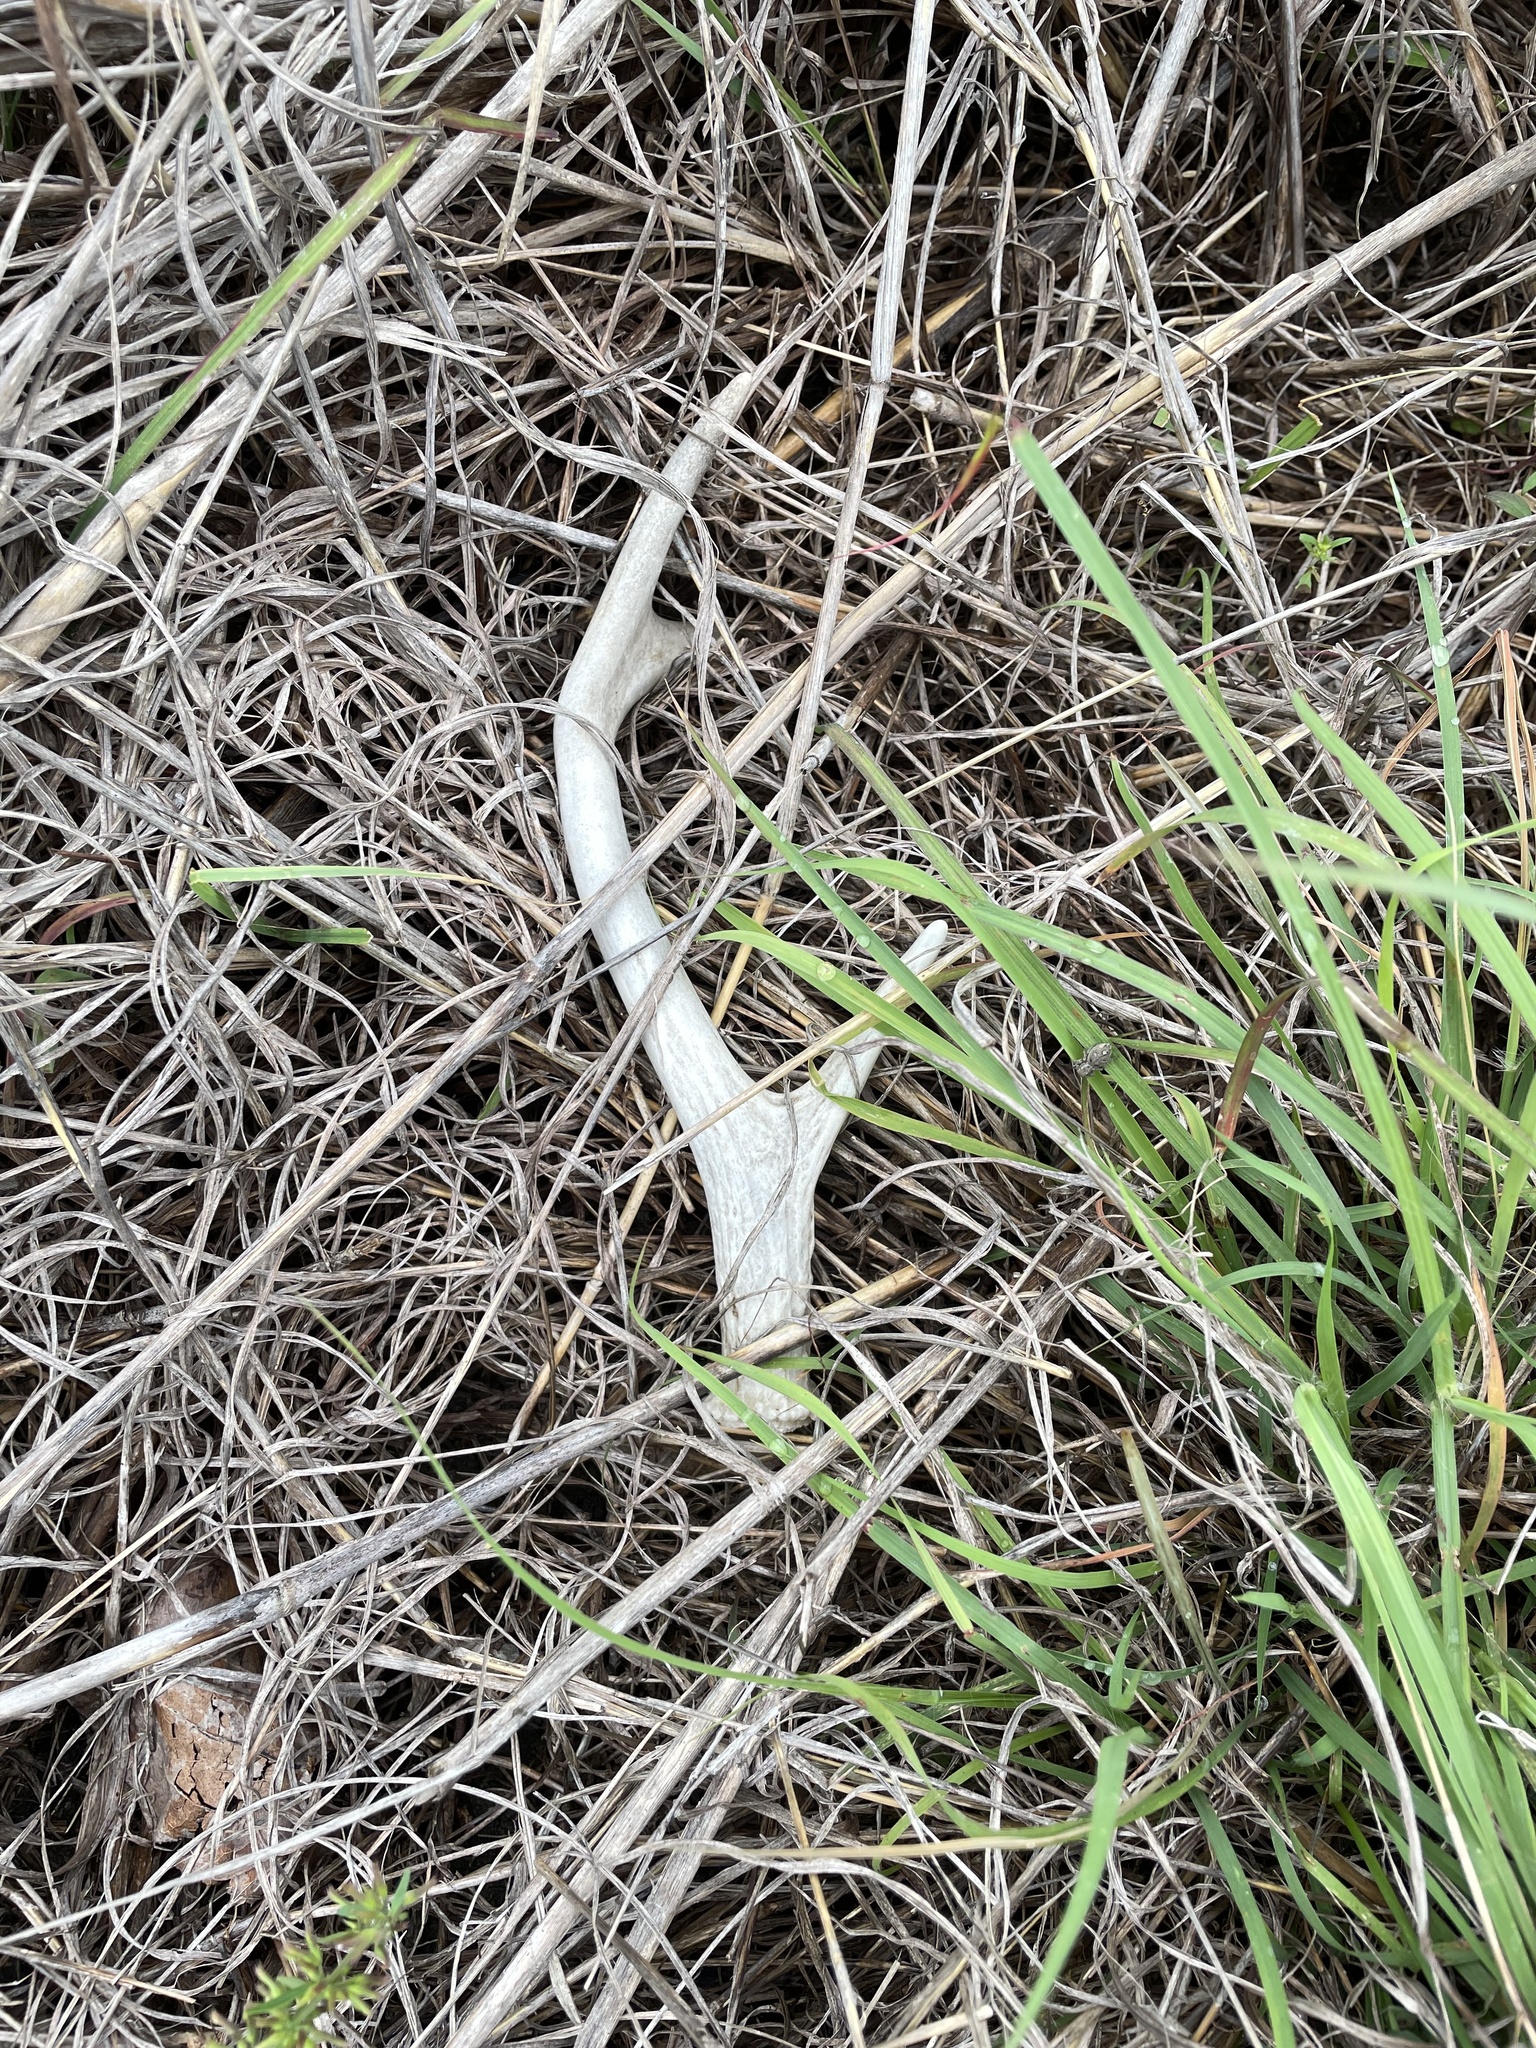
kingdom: Animalia
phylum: Chordata
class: Mammalia
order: Artiodactyla
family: Cervidae
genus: Odocoileus
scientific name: Odocoileus virginianus
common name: White-tailed deer
